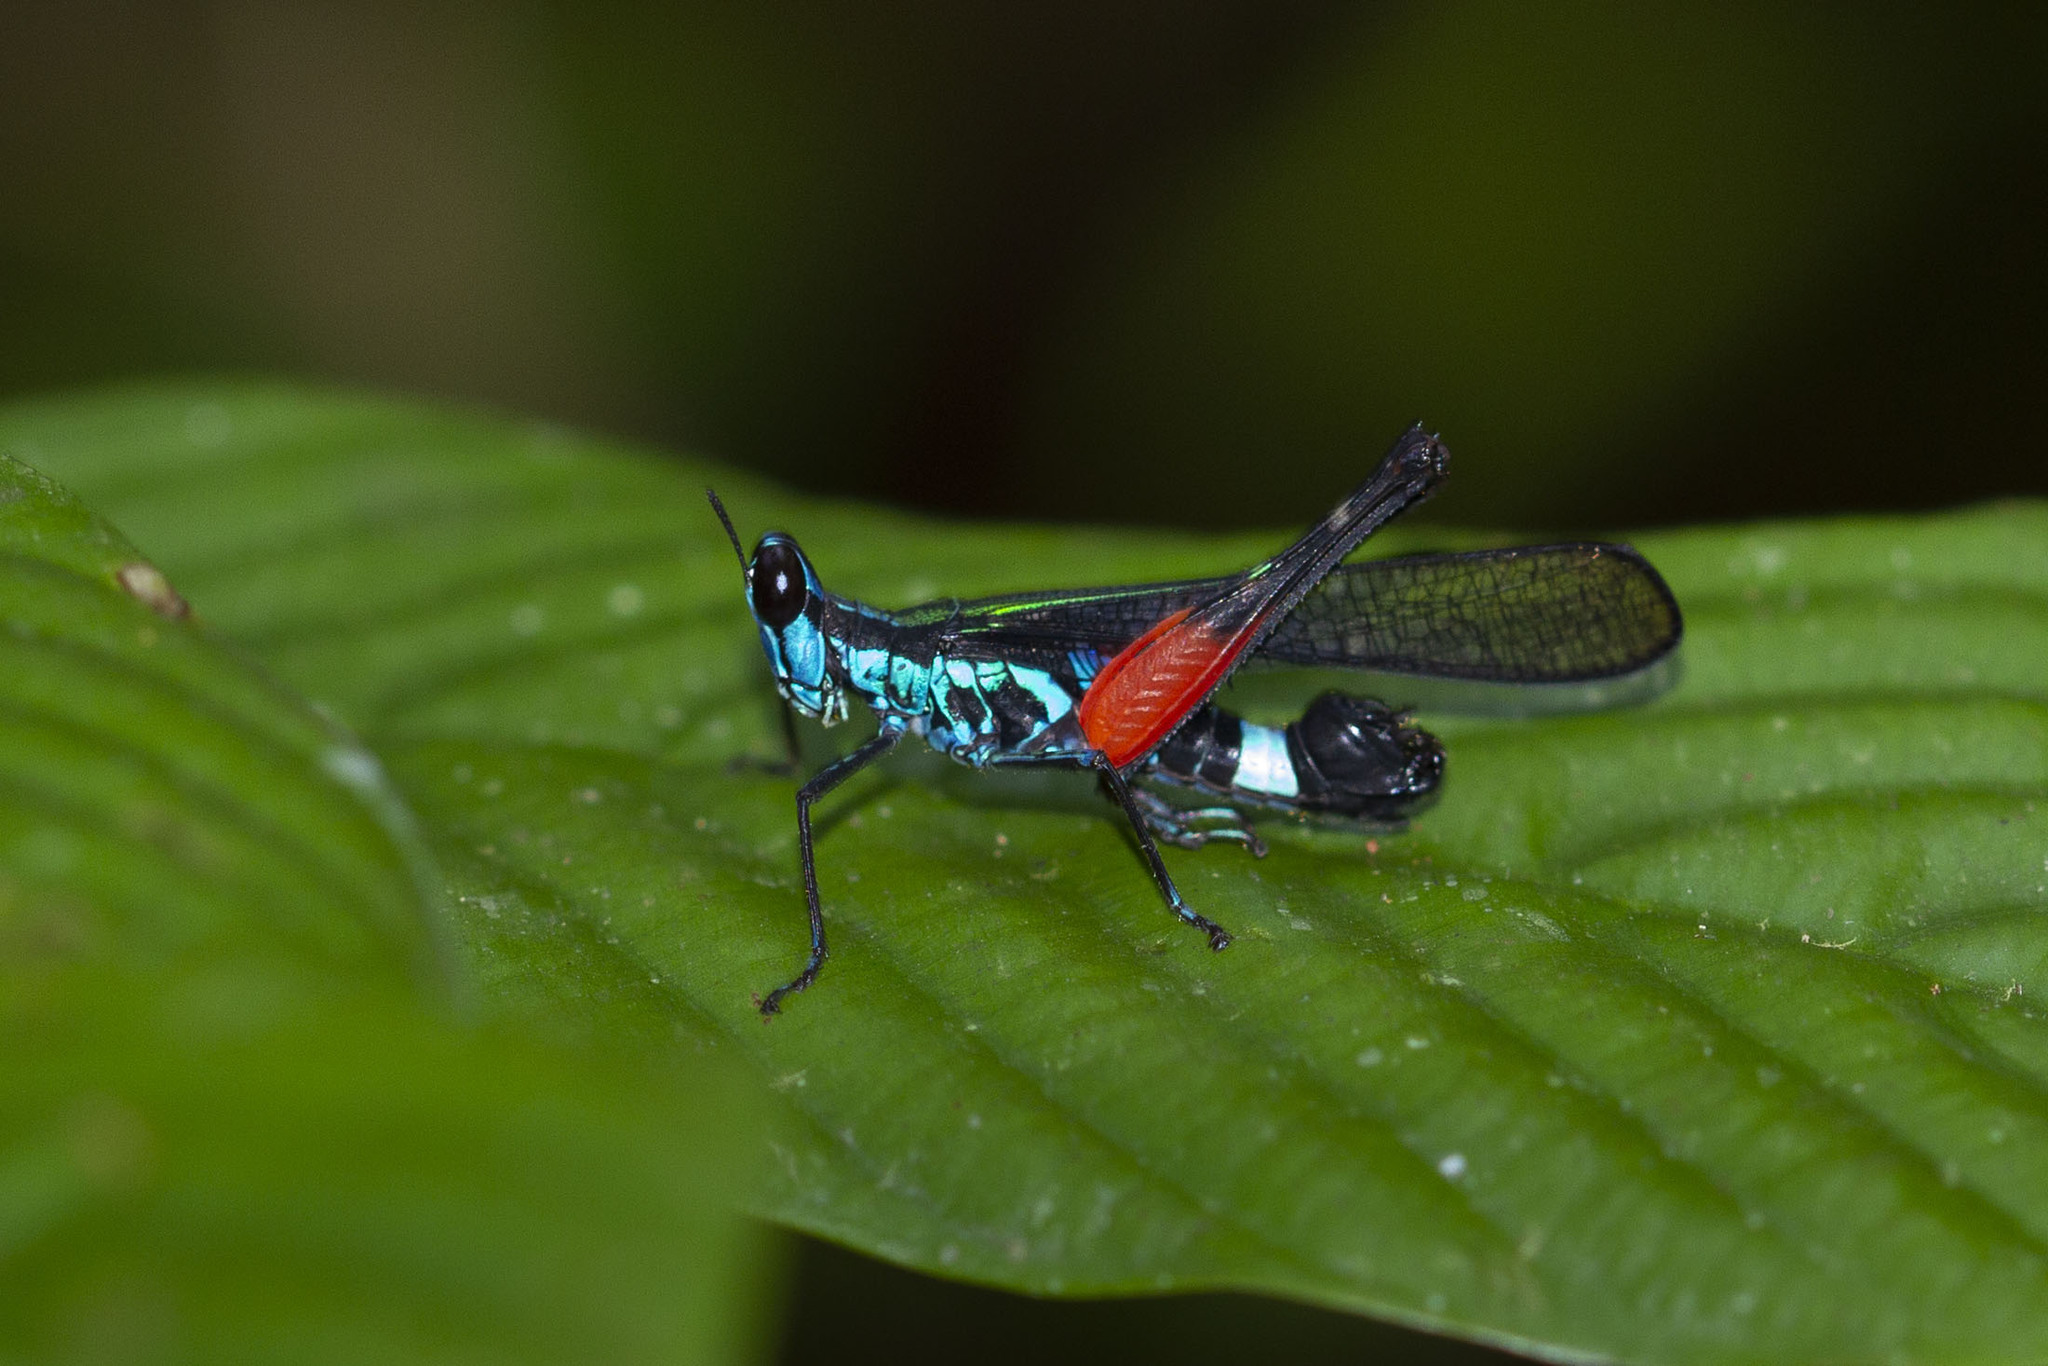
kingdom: Animalia
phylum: Arthropoda
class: Insecta
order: Orthoptera
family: Chorotypidae
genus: Erucius
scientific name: Erucius dimidiatipes
